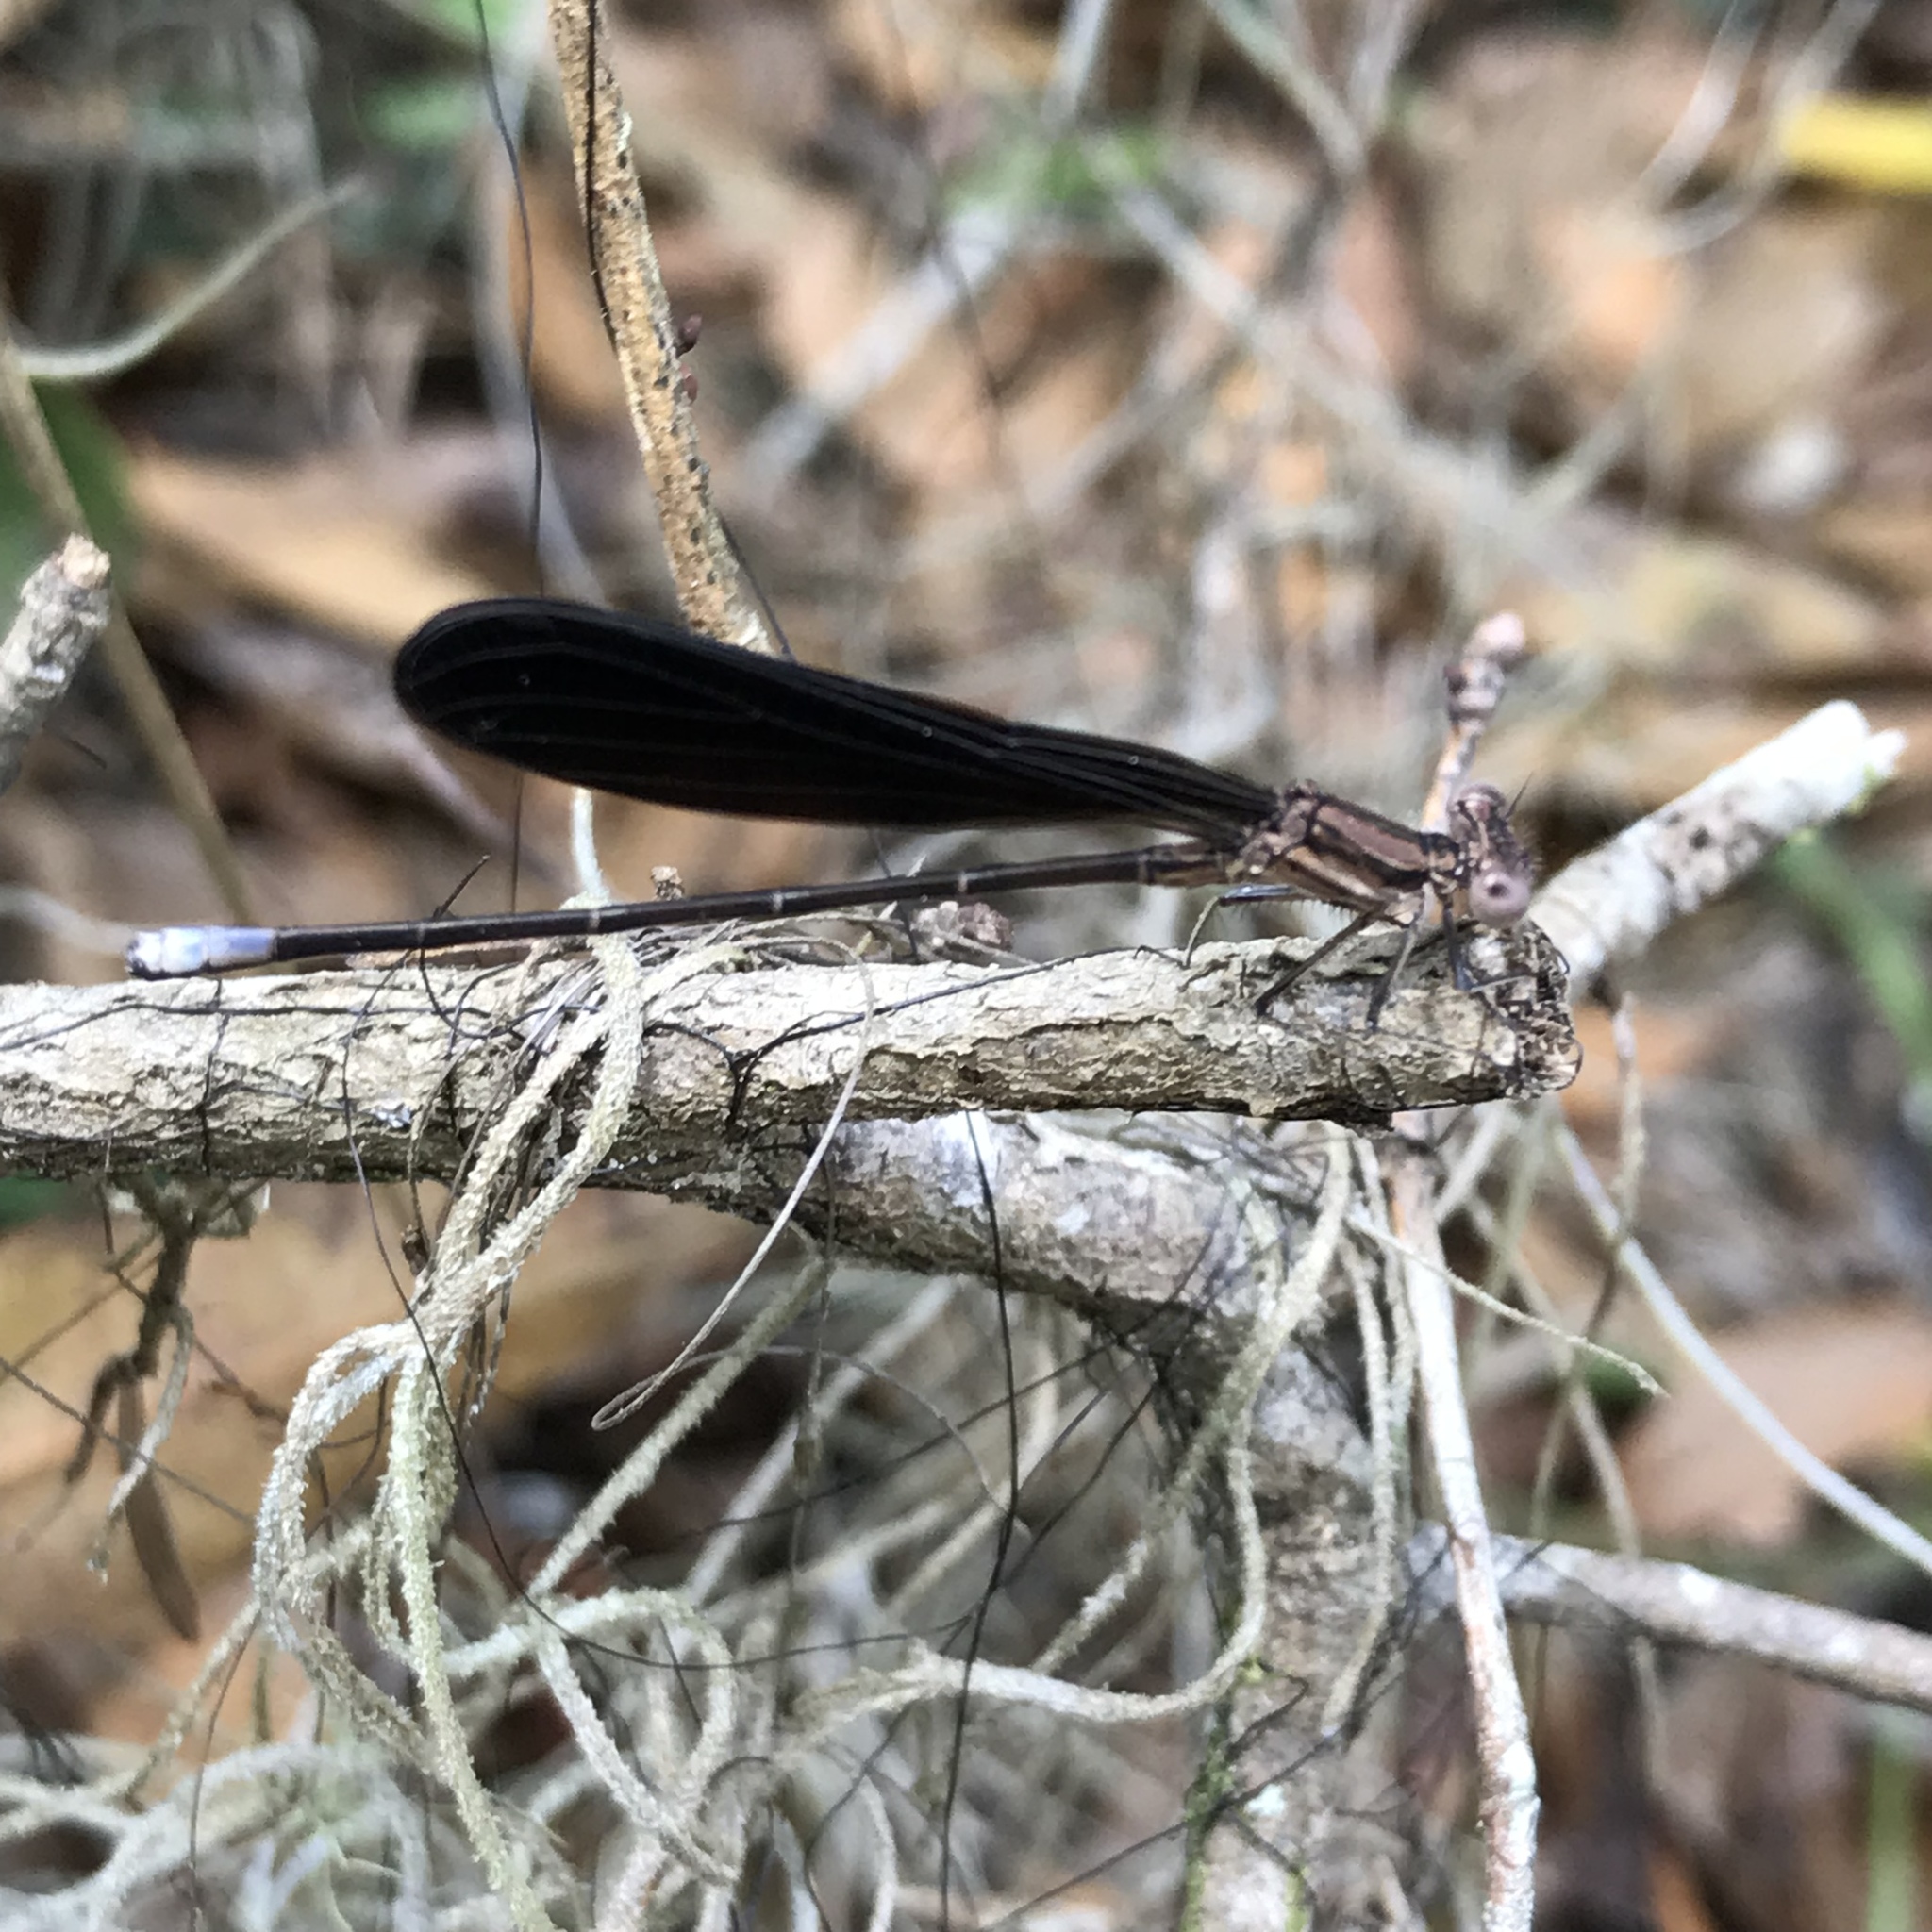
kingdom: Animalia
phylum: Arthropoda
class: Insecta
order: Odonata
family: Coenagrionidae
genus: Argia
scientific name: Argia fumipennis
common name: Variable dancer
